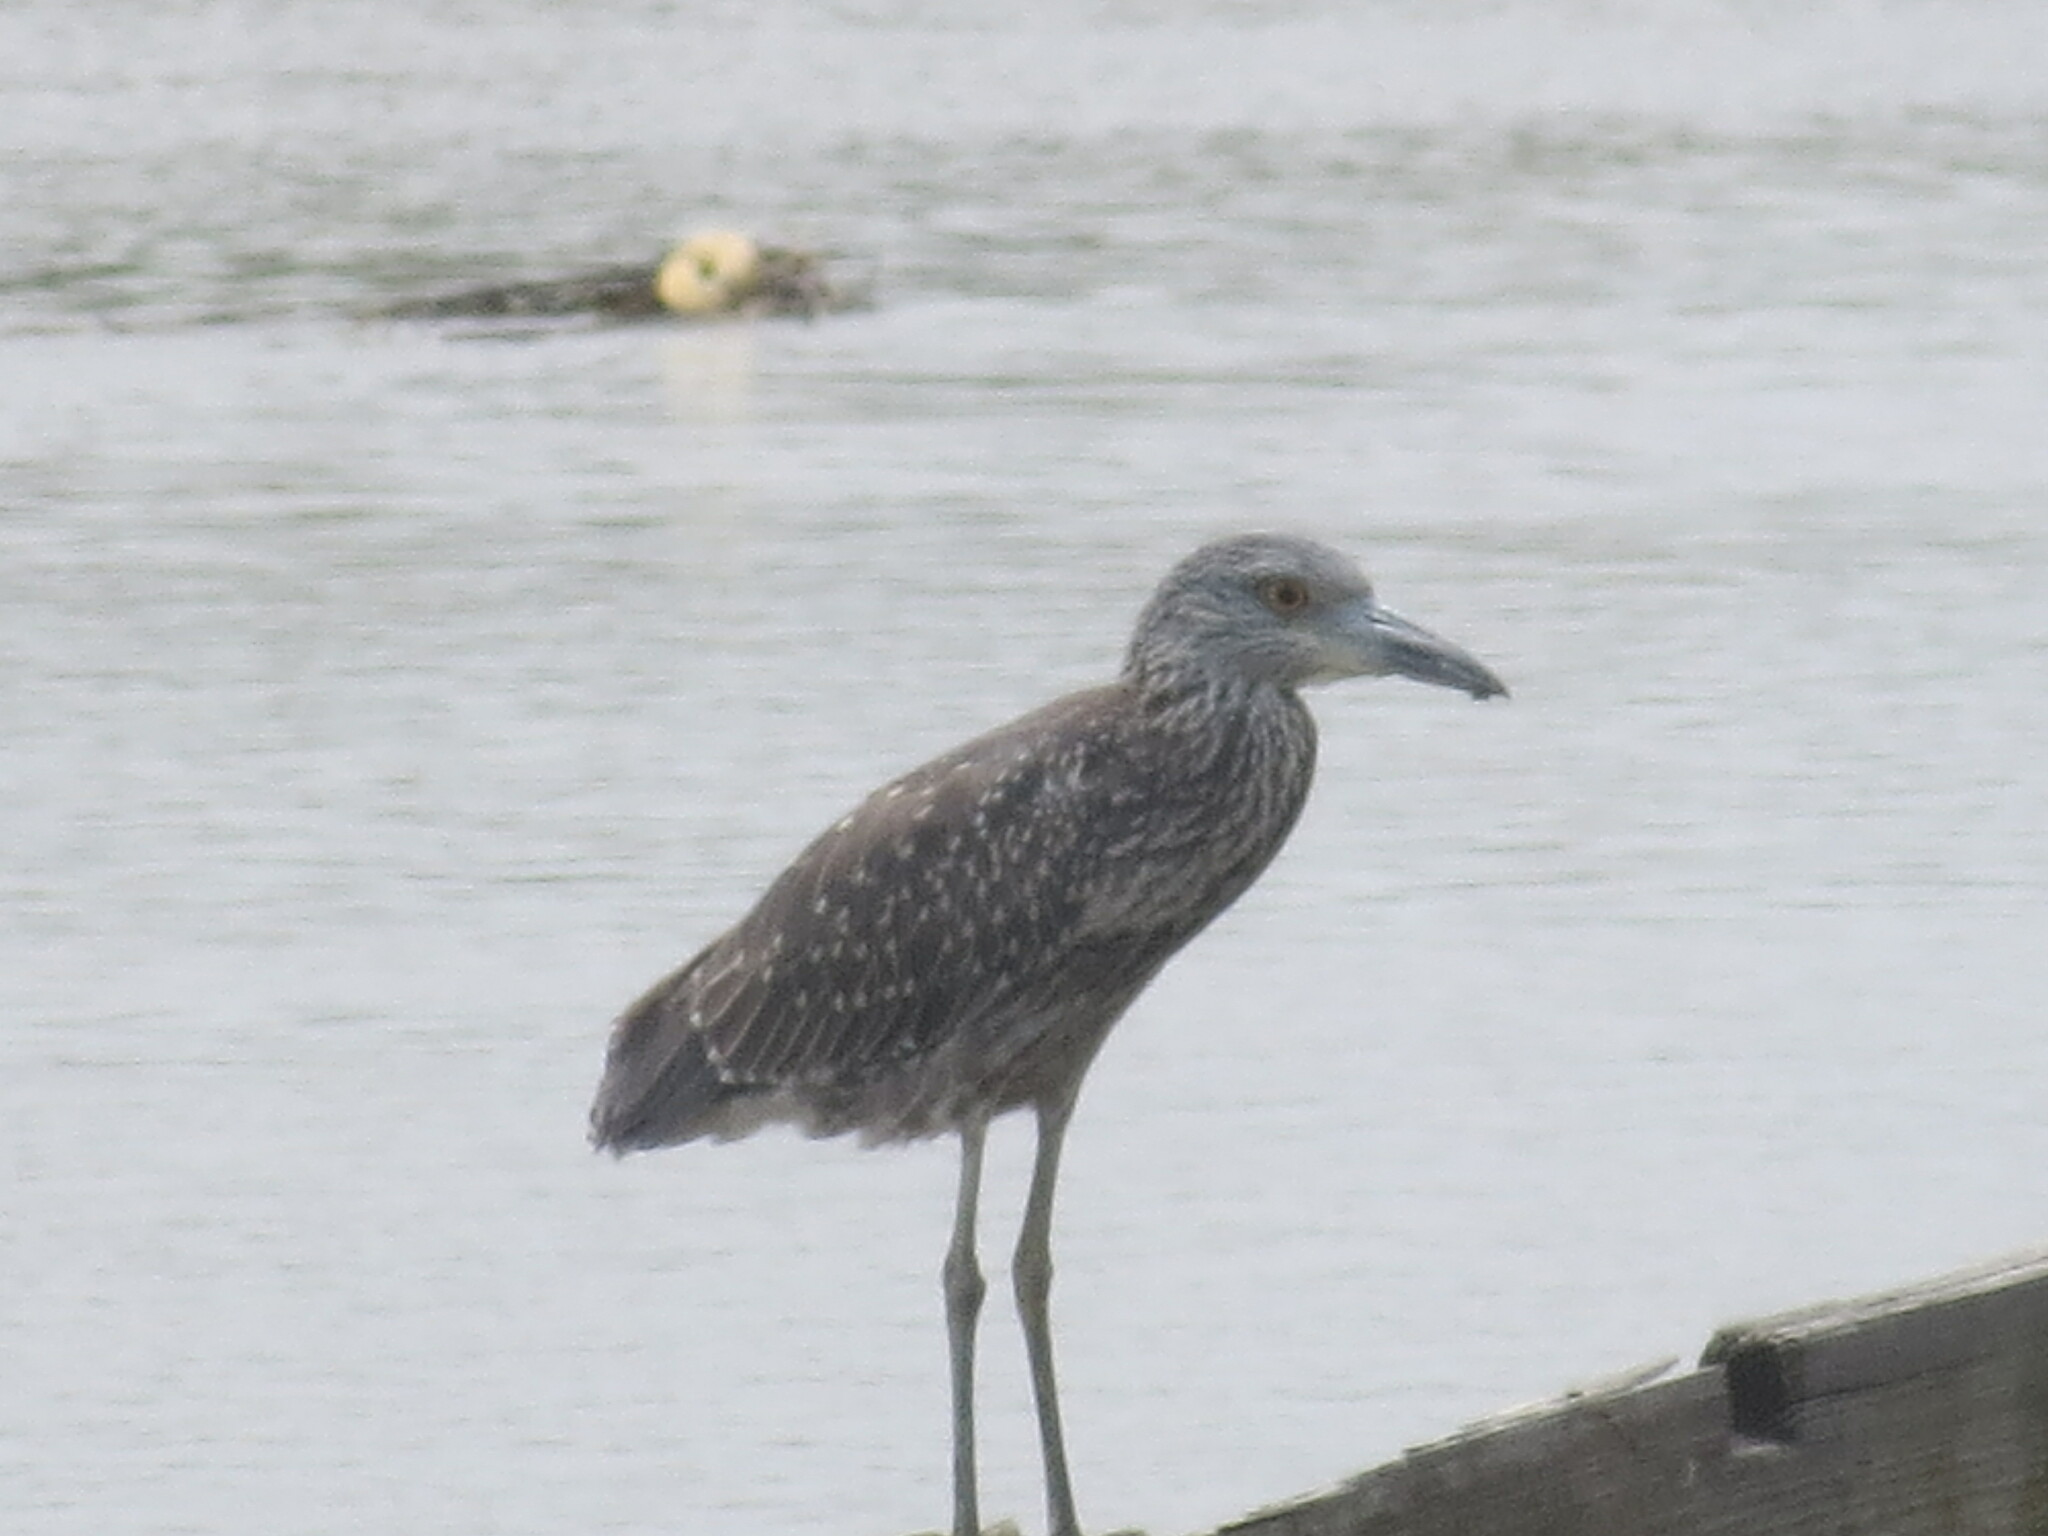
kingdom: Animalia
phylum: Chordata
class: Aves
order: Pelecaniformes
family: Ardeidae
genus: Nyctanassa
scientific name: Nyctanassa violacea
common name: Yellow-crowned night heron
